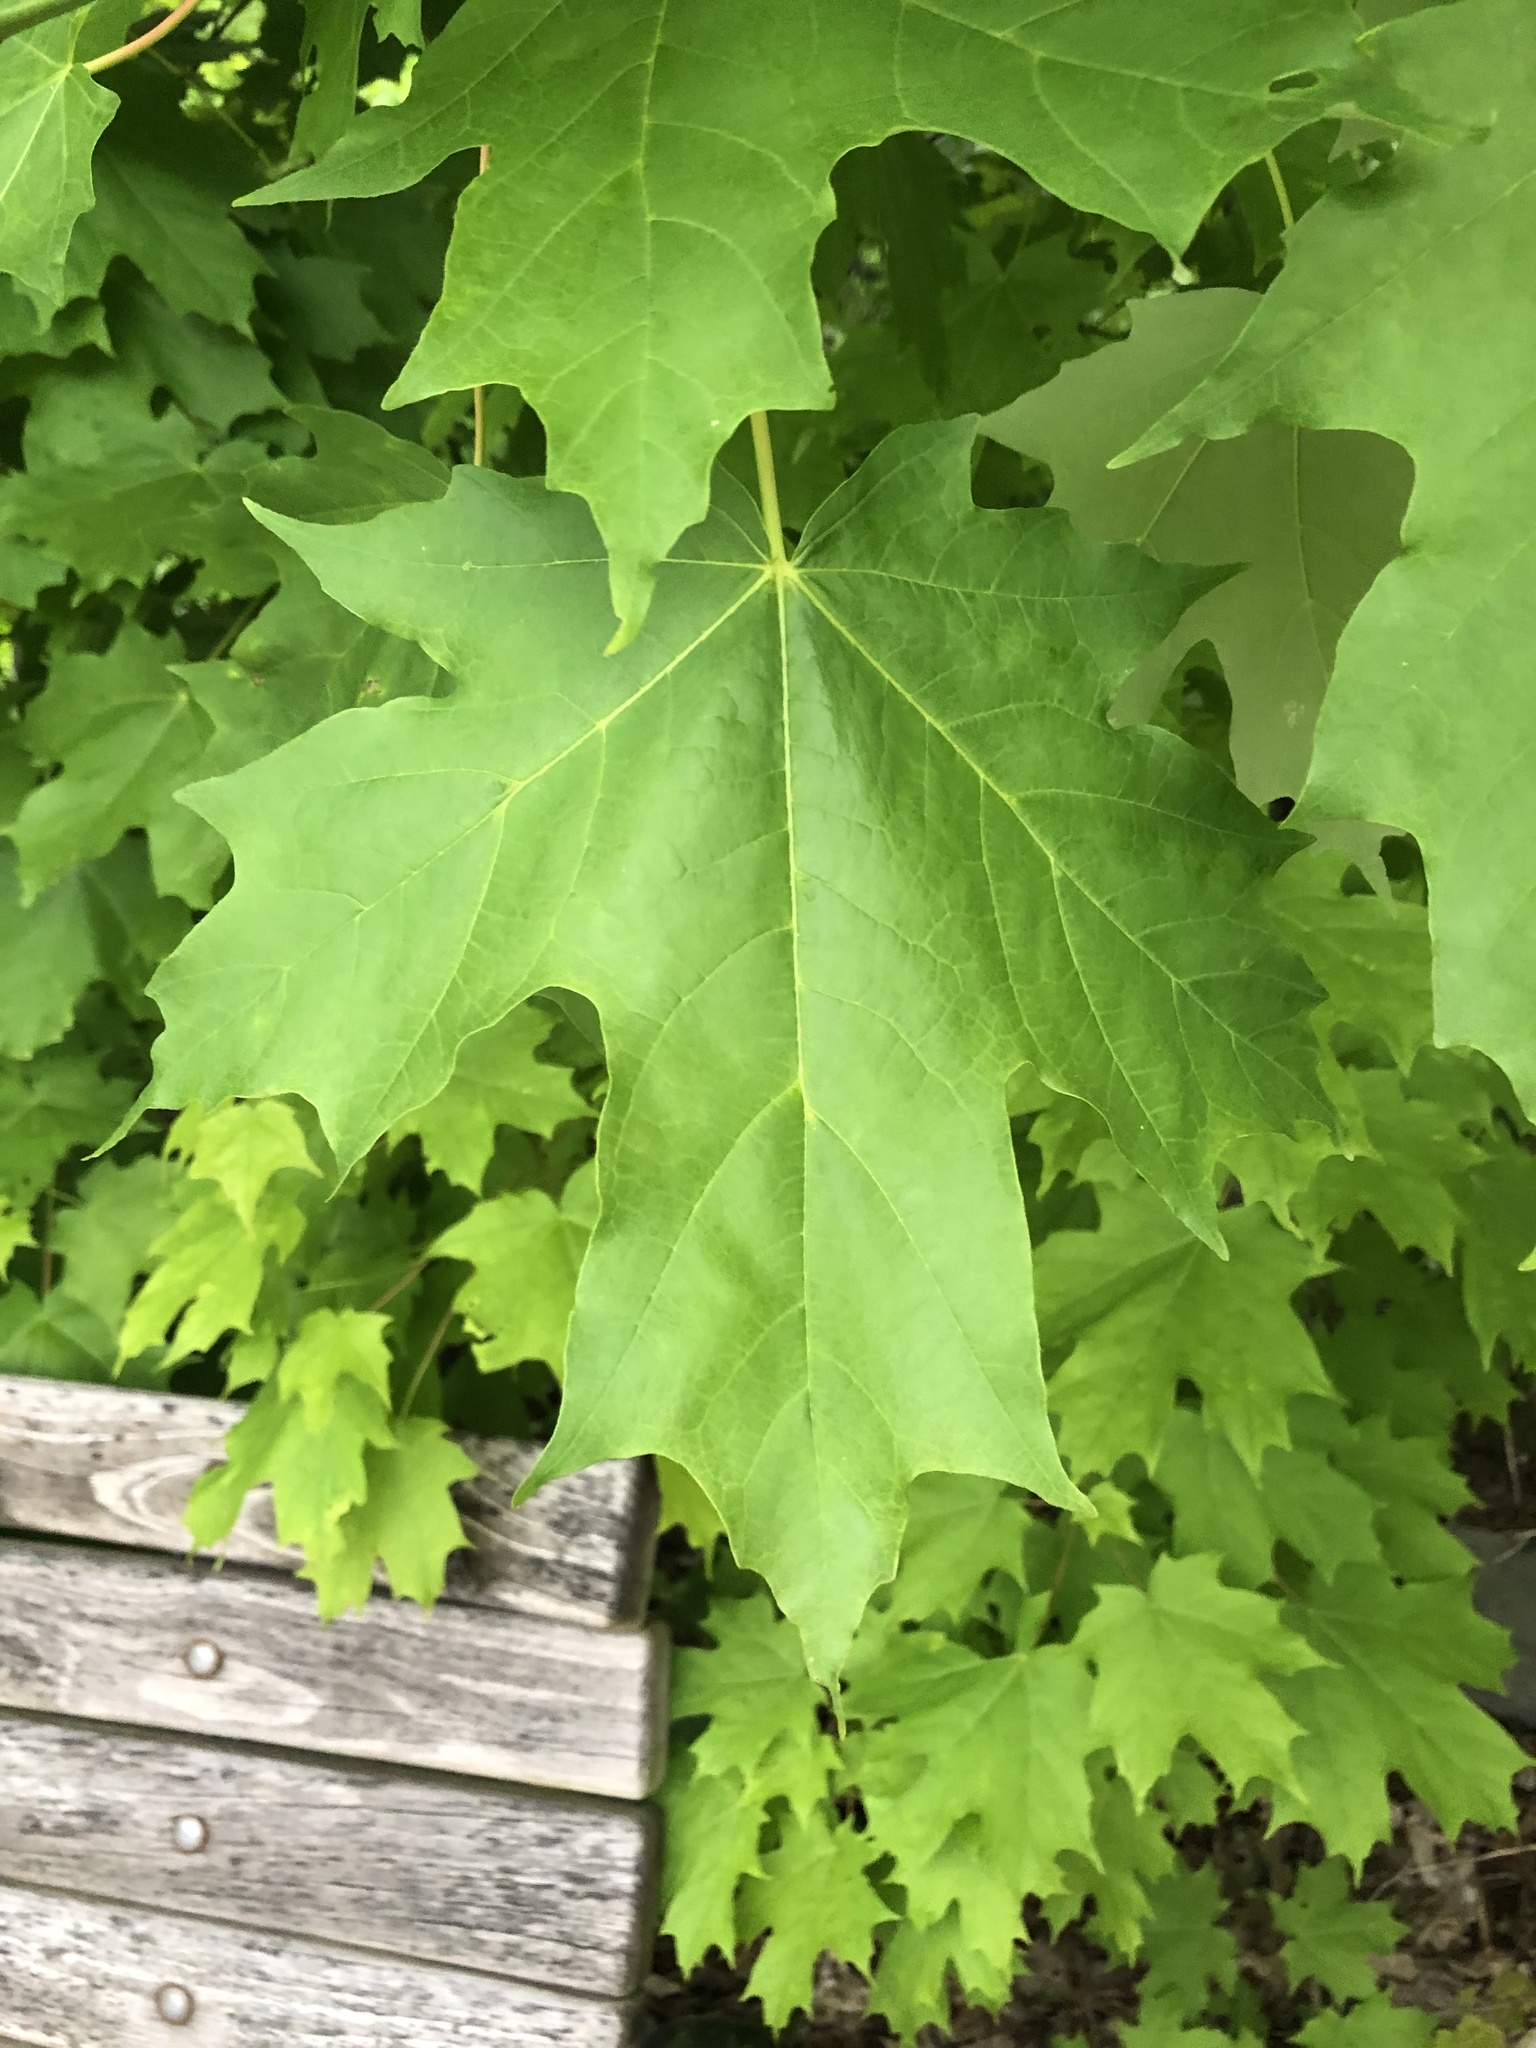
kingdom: Plantae
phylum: Tracheophyta
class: Magnoliopsida
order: Sapindales
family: Sapindaceae
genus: Acer
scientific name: Acer saccharum
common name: Sugar maple
